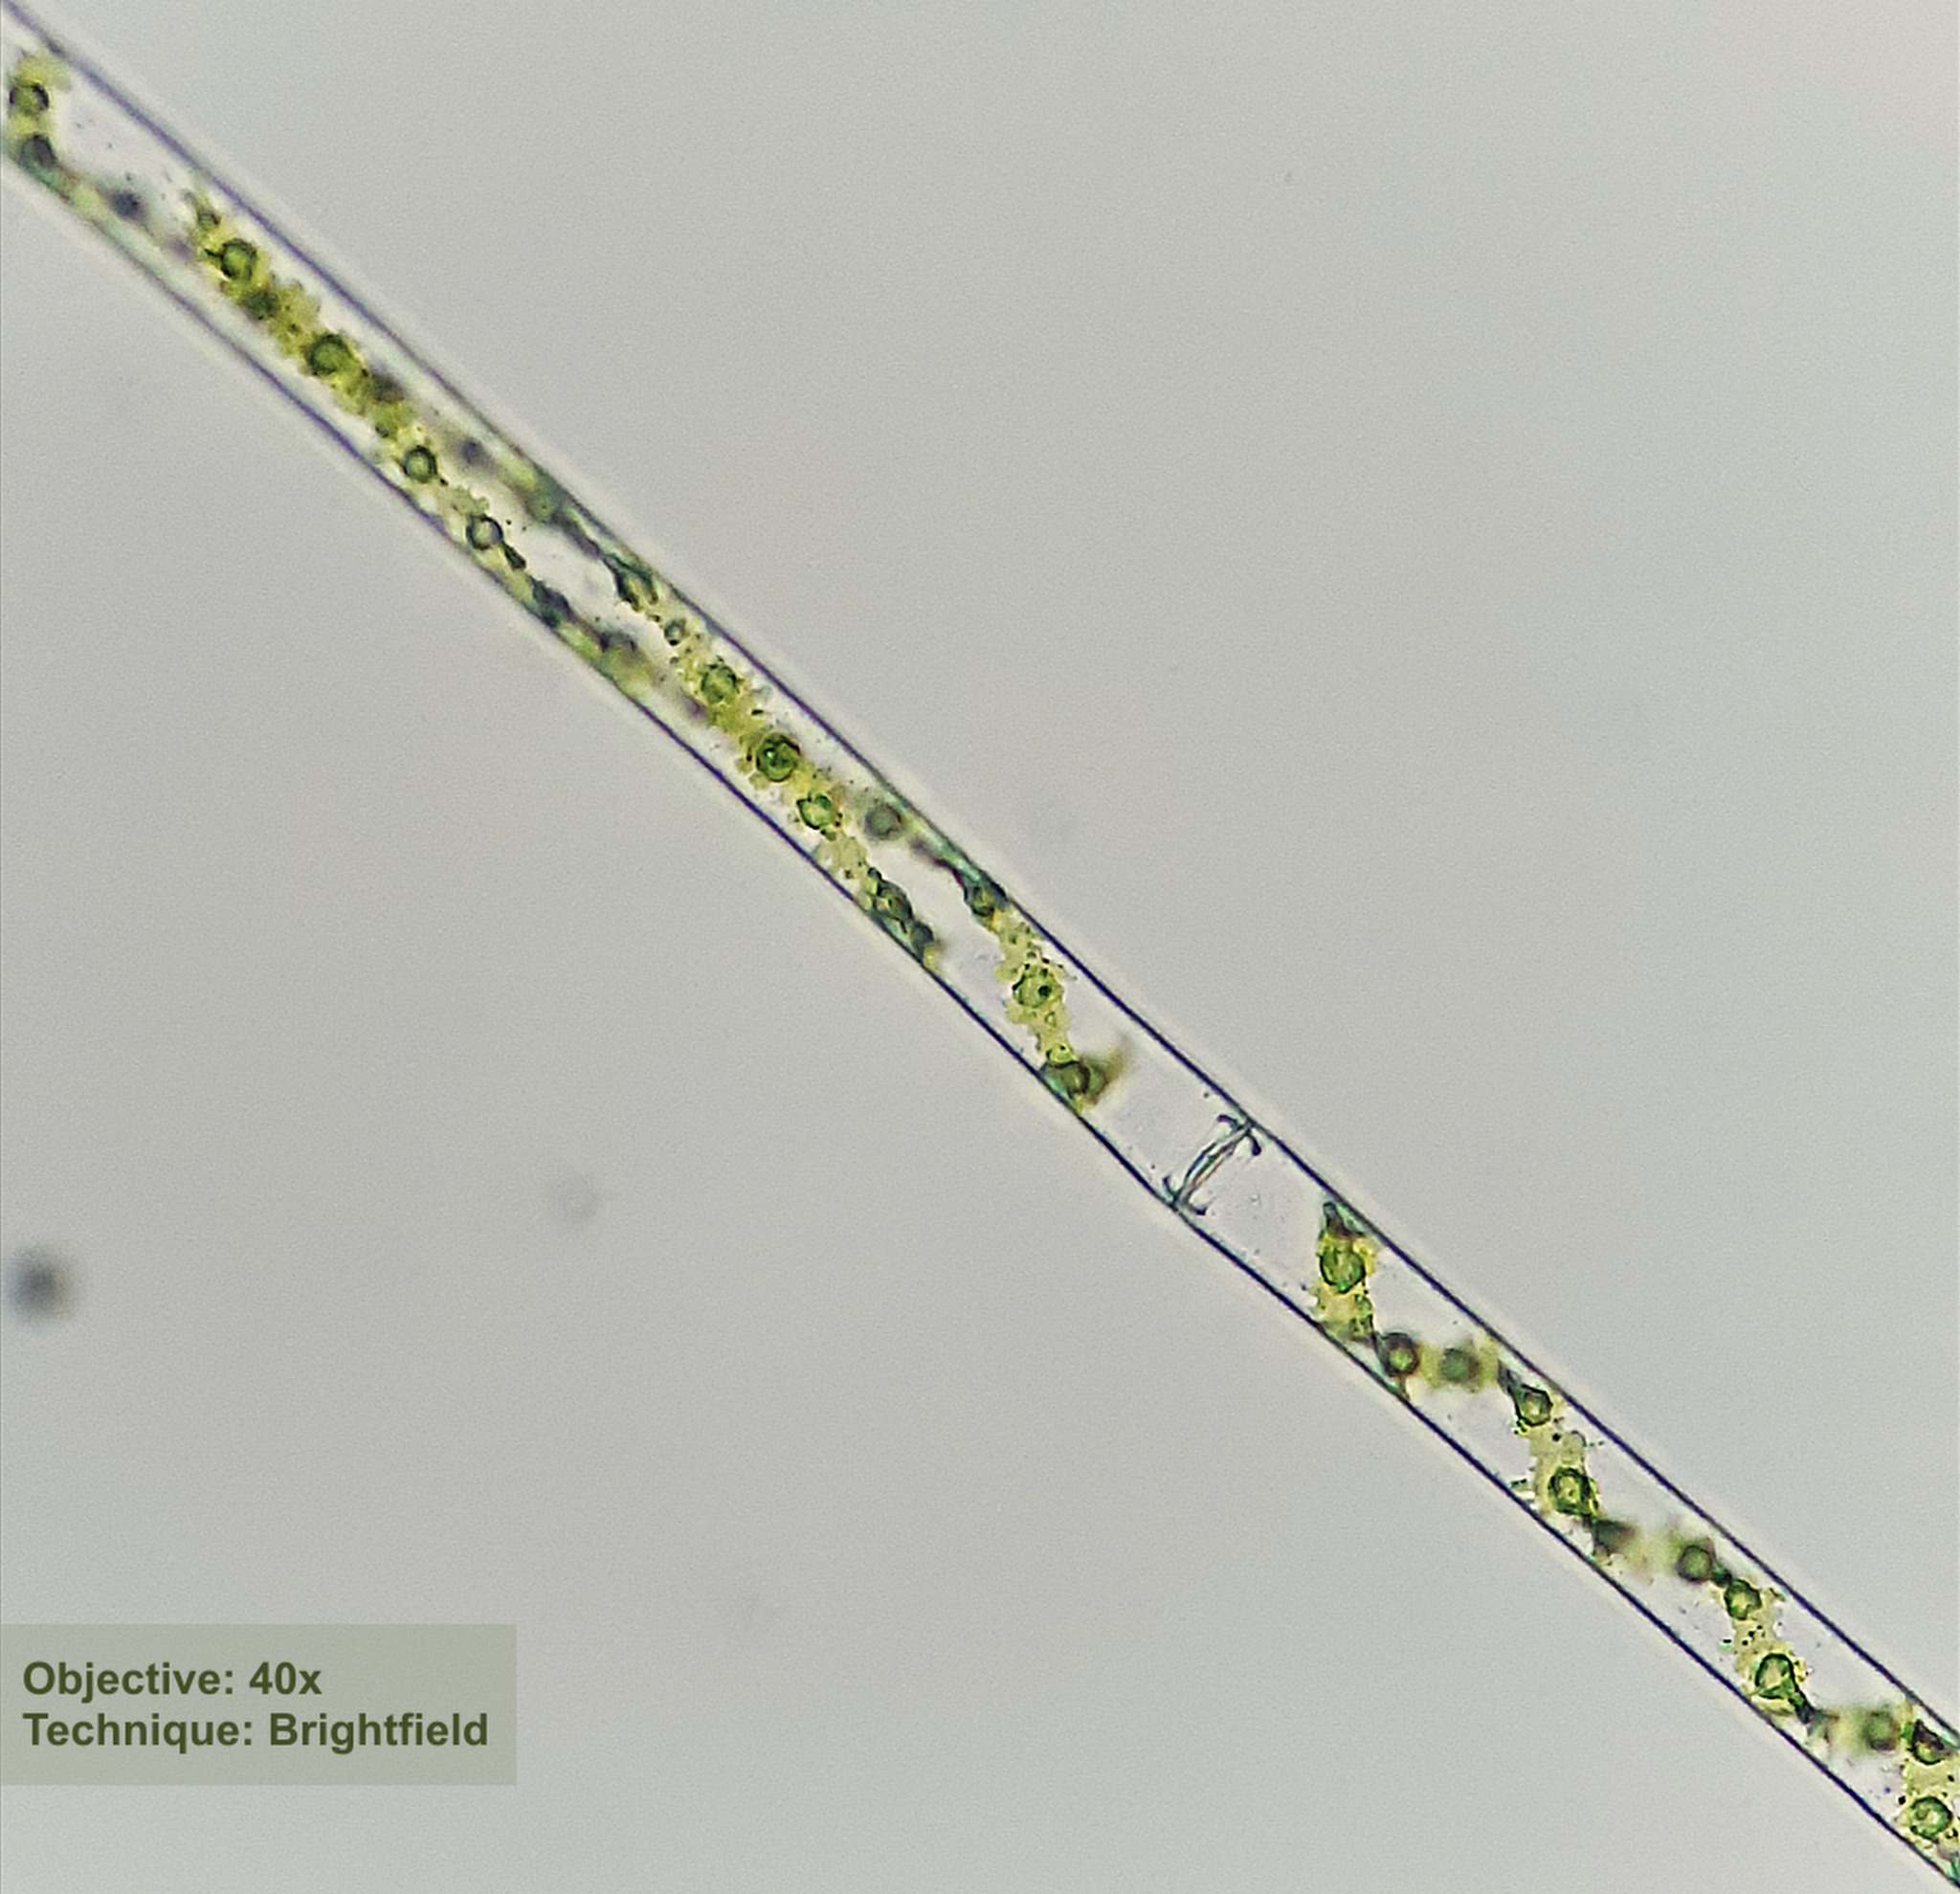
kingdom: Plantae
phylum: Charophyta
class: Zygnematophyceae
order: Zygnematales
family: Zygnemataceae
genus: Spirogyra
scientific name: Spirogyra
